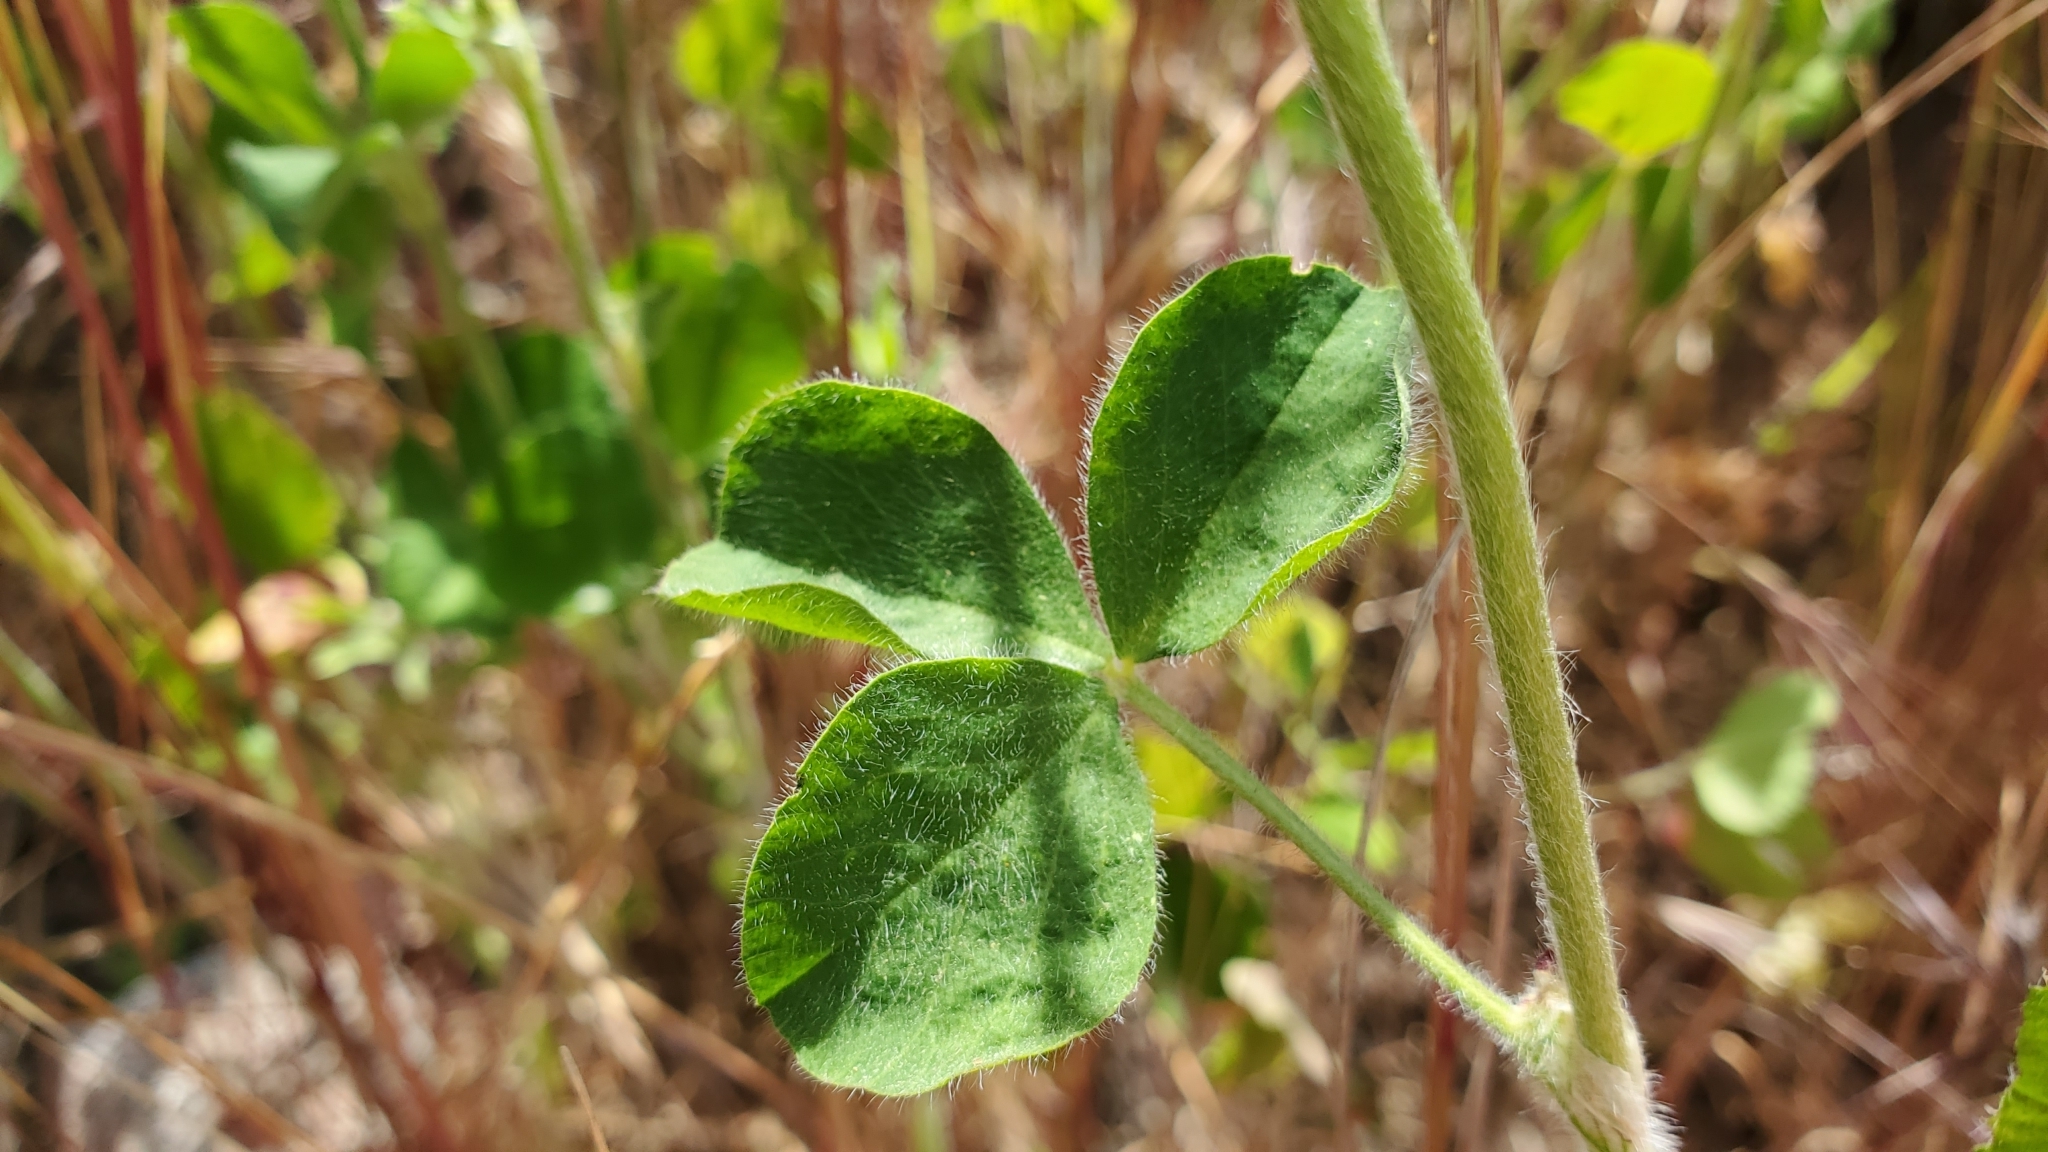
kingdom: Plantae
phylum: Tracheophyta
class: Magnoliopsida
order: Fabales
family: Fabaceae
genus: Trifolium
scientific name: Trifolium incarnatum
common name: Crimson clover
